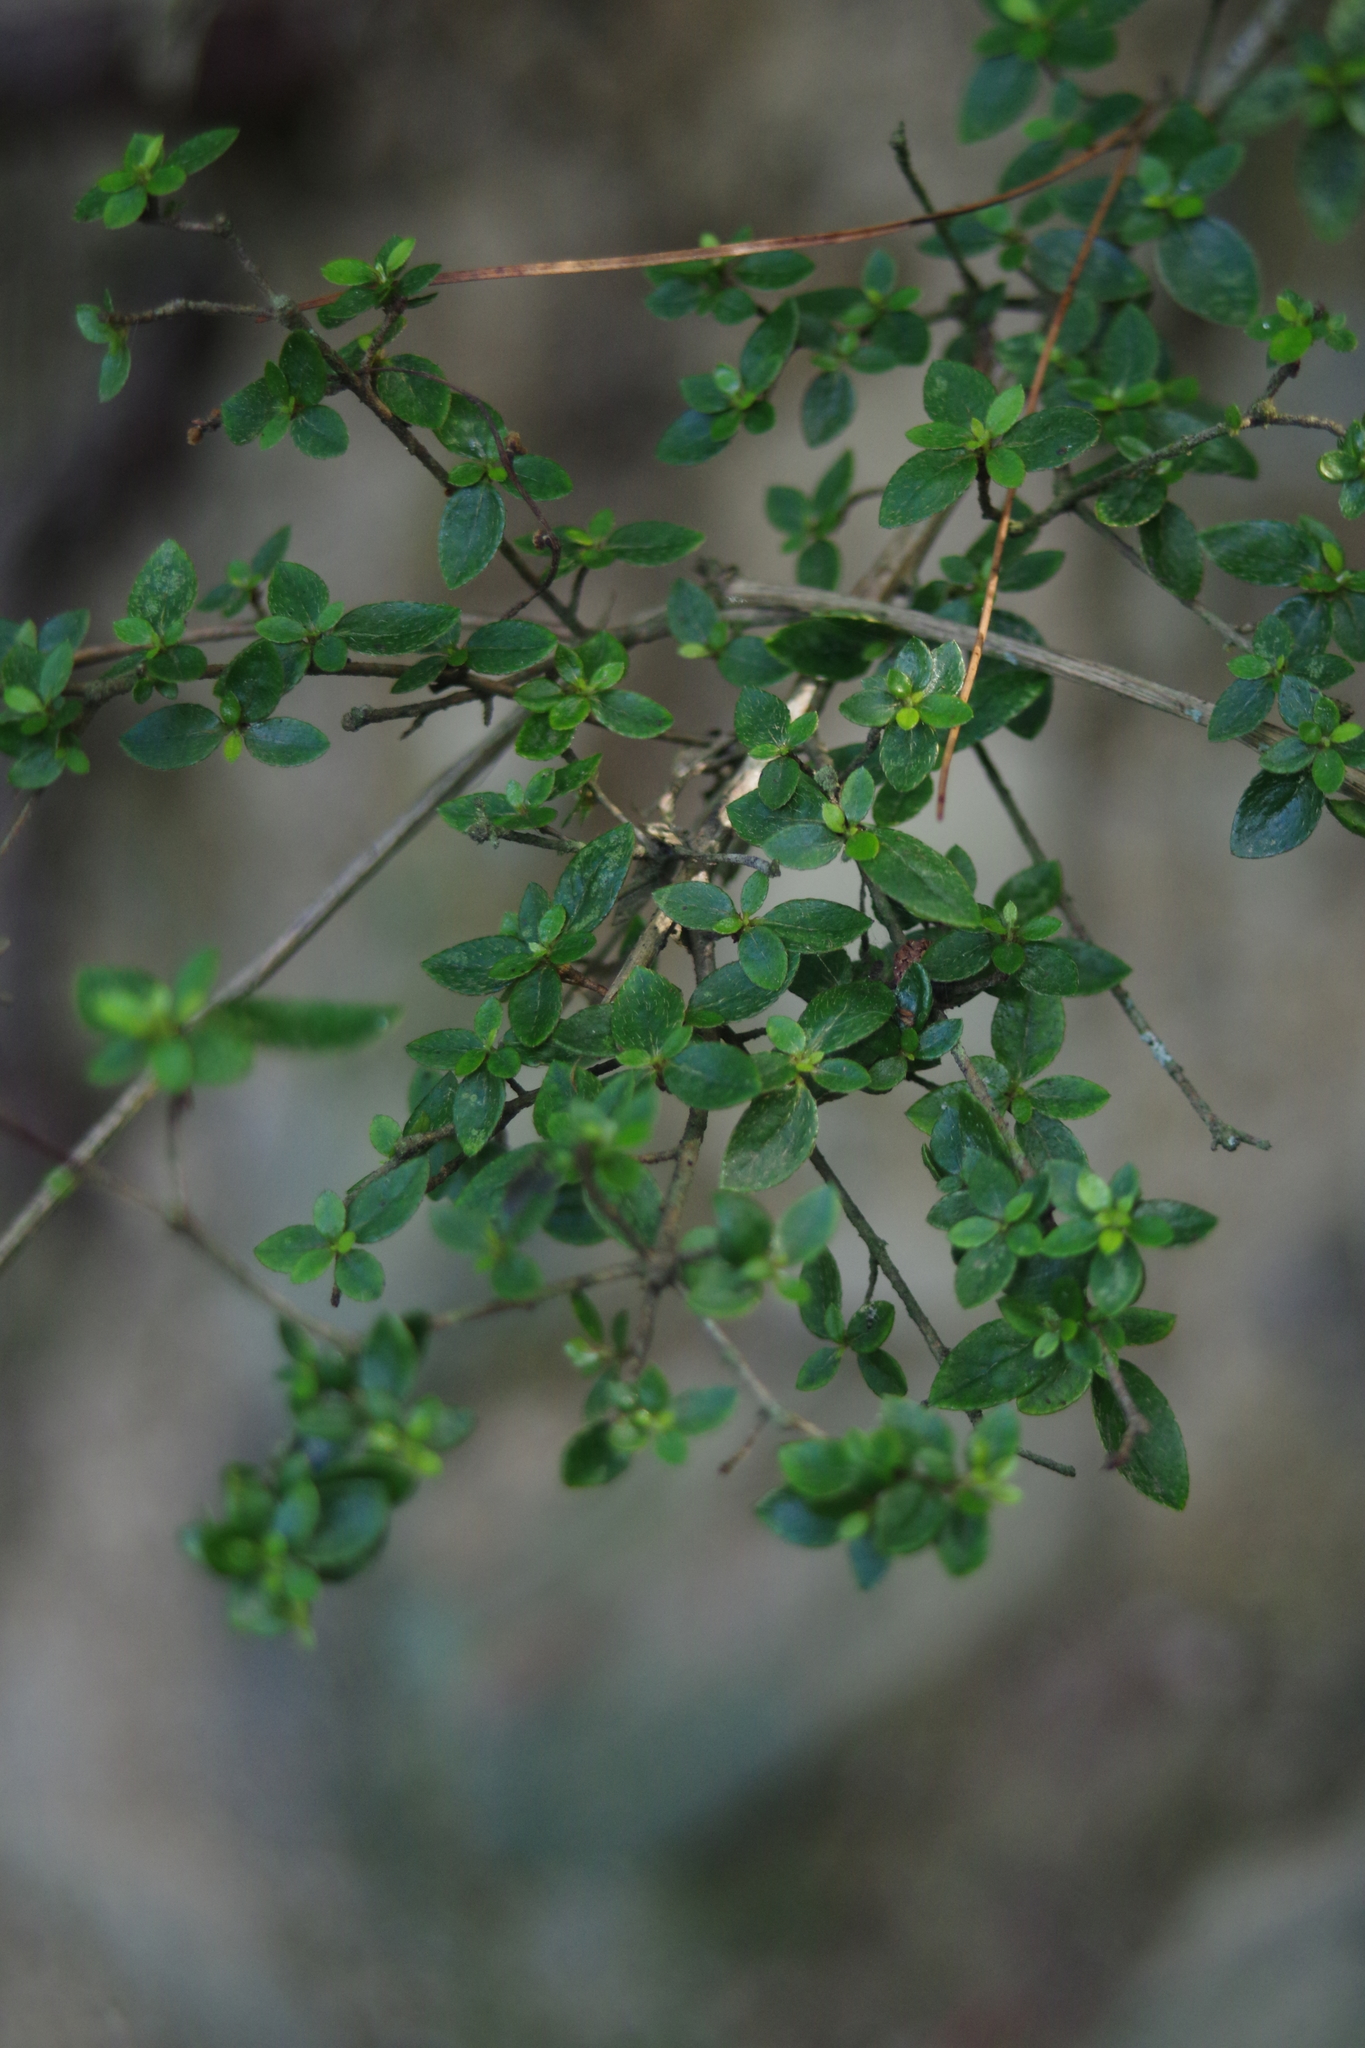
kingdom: Plantae
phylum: Tracheophyta
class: Magnoliopsida
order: Ericales
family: Ericaceae
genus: Rhododendron
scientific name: Rhododendron noriakianum
